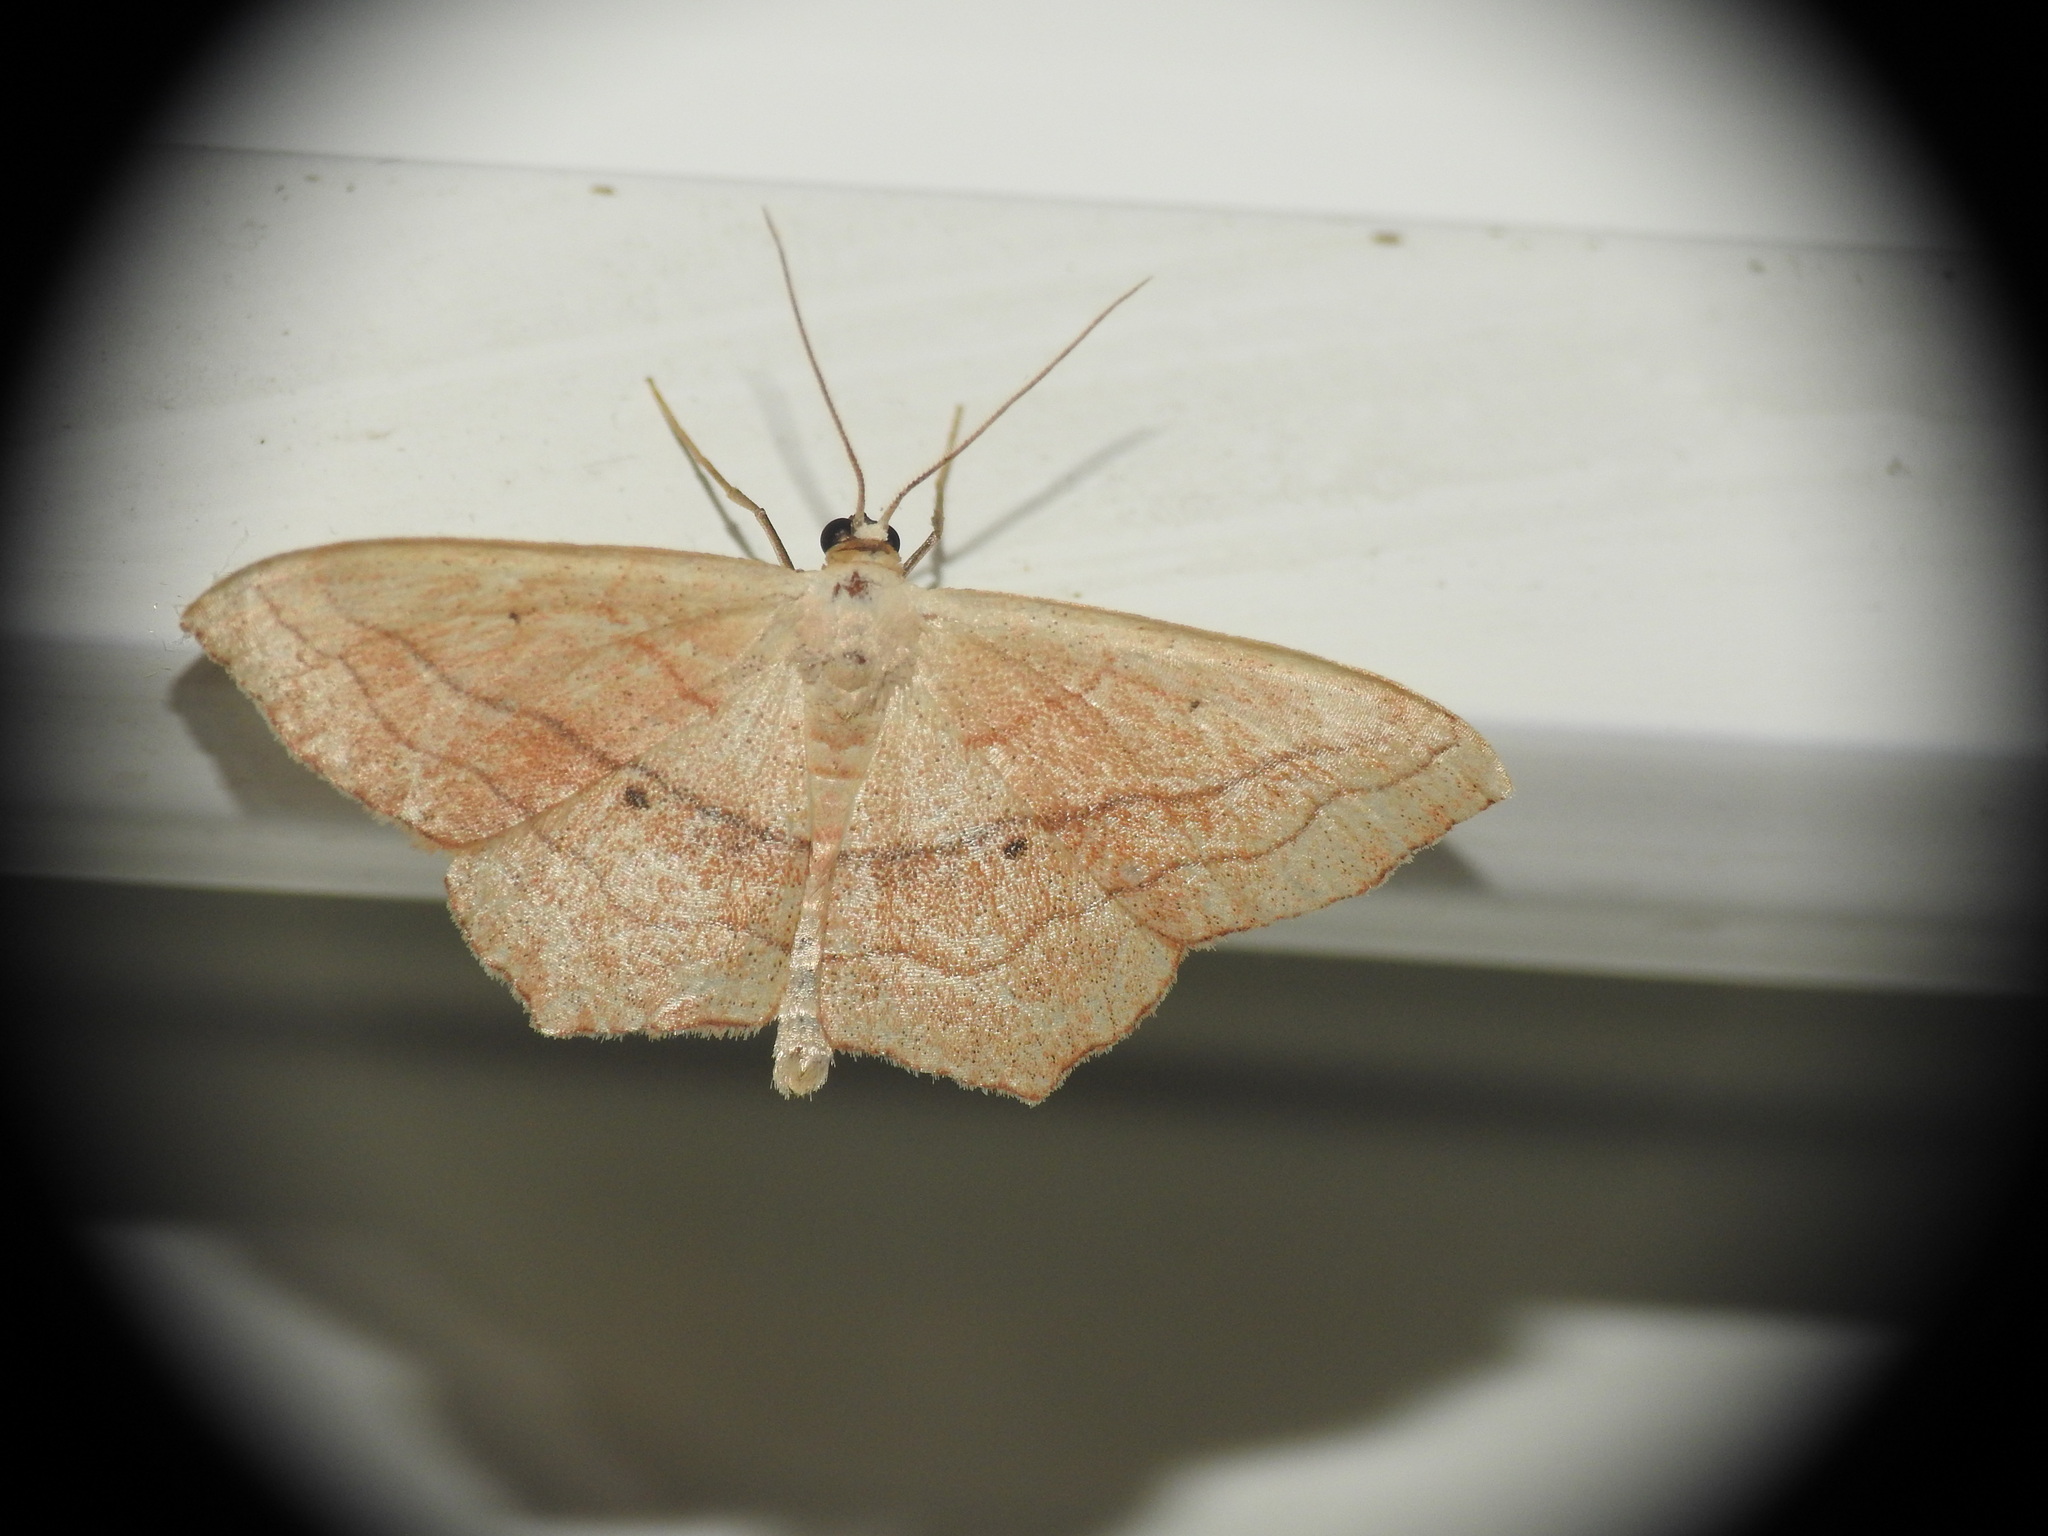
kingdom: Animalia
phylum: Arthropoda
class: Insecta
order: Lepidoptera
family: Geometridae
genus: Scopula
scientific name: Scopula imitaria
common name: Small blood-vein
